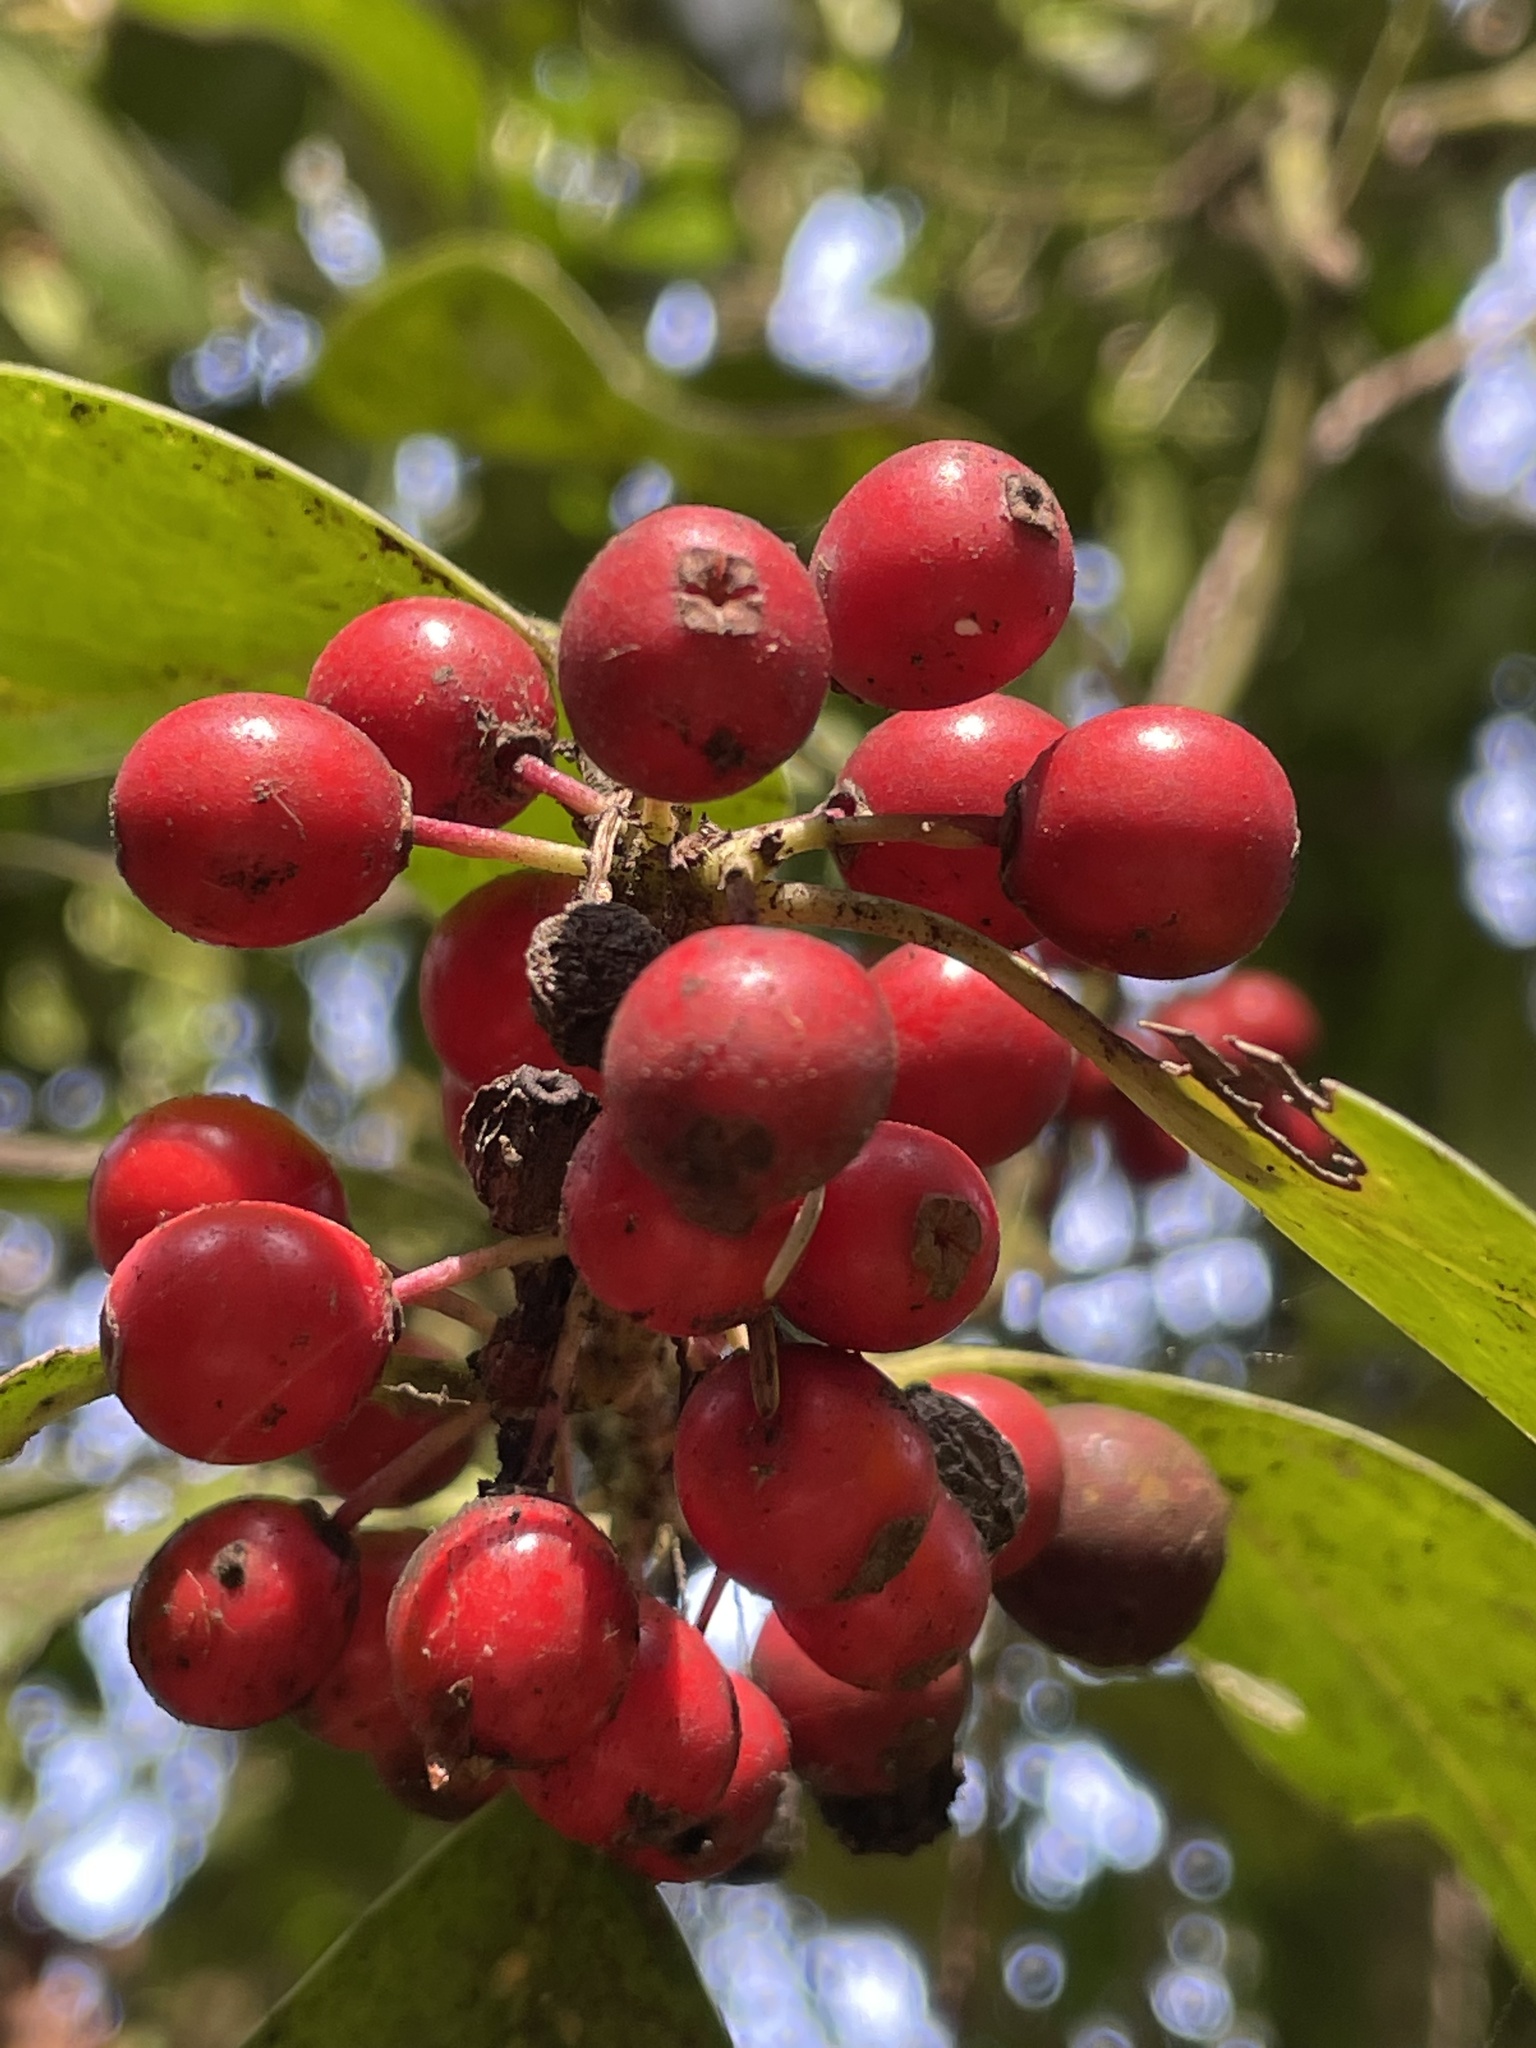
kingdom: Plantae
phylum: Tracheophyta
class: Magnoliopsida
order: Aquifoliales
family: Aquifoliaceae
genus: Ilex
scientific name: Ilex aquifolium
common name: English holly
